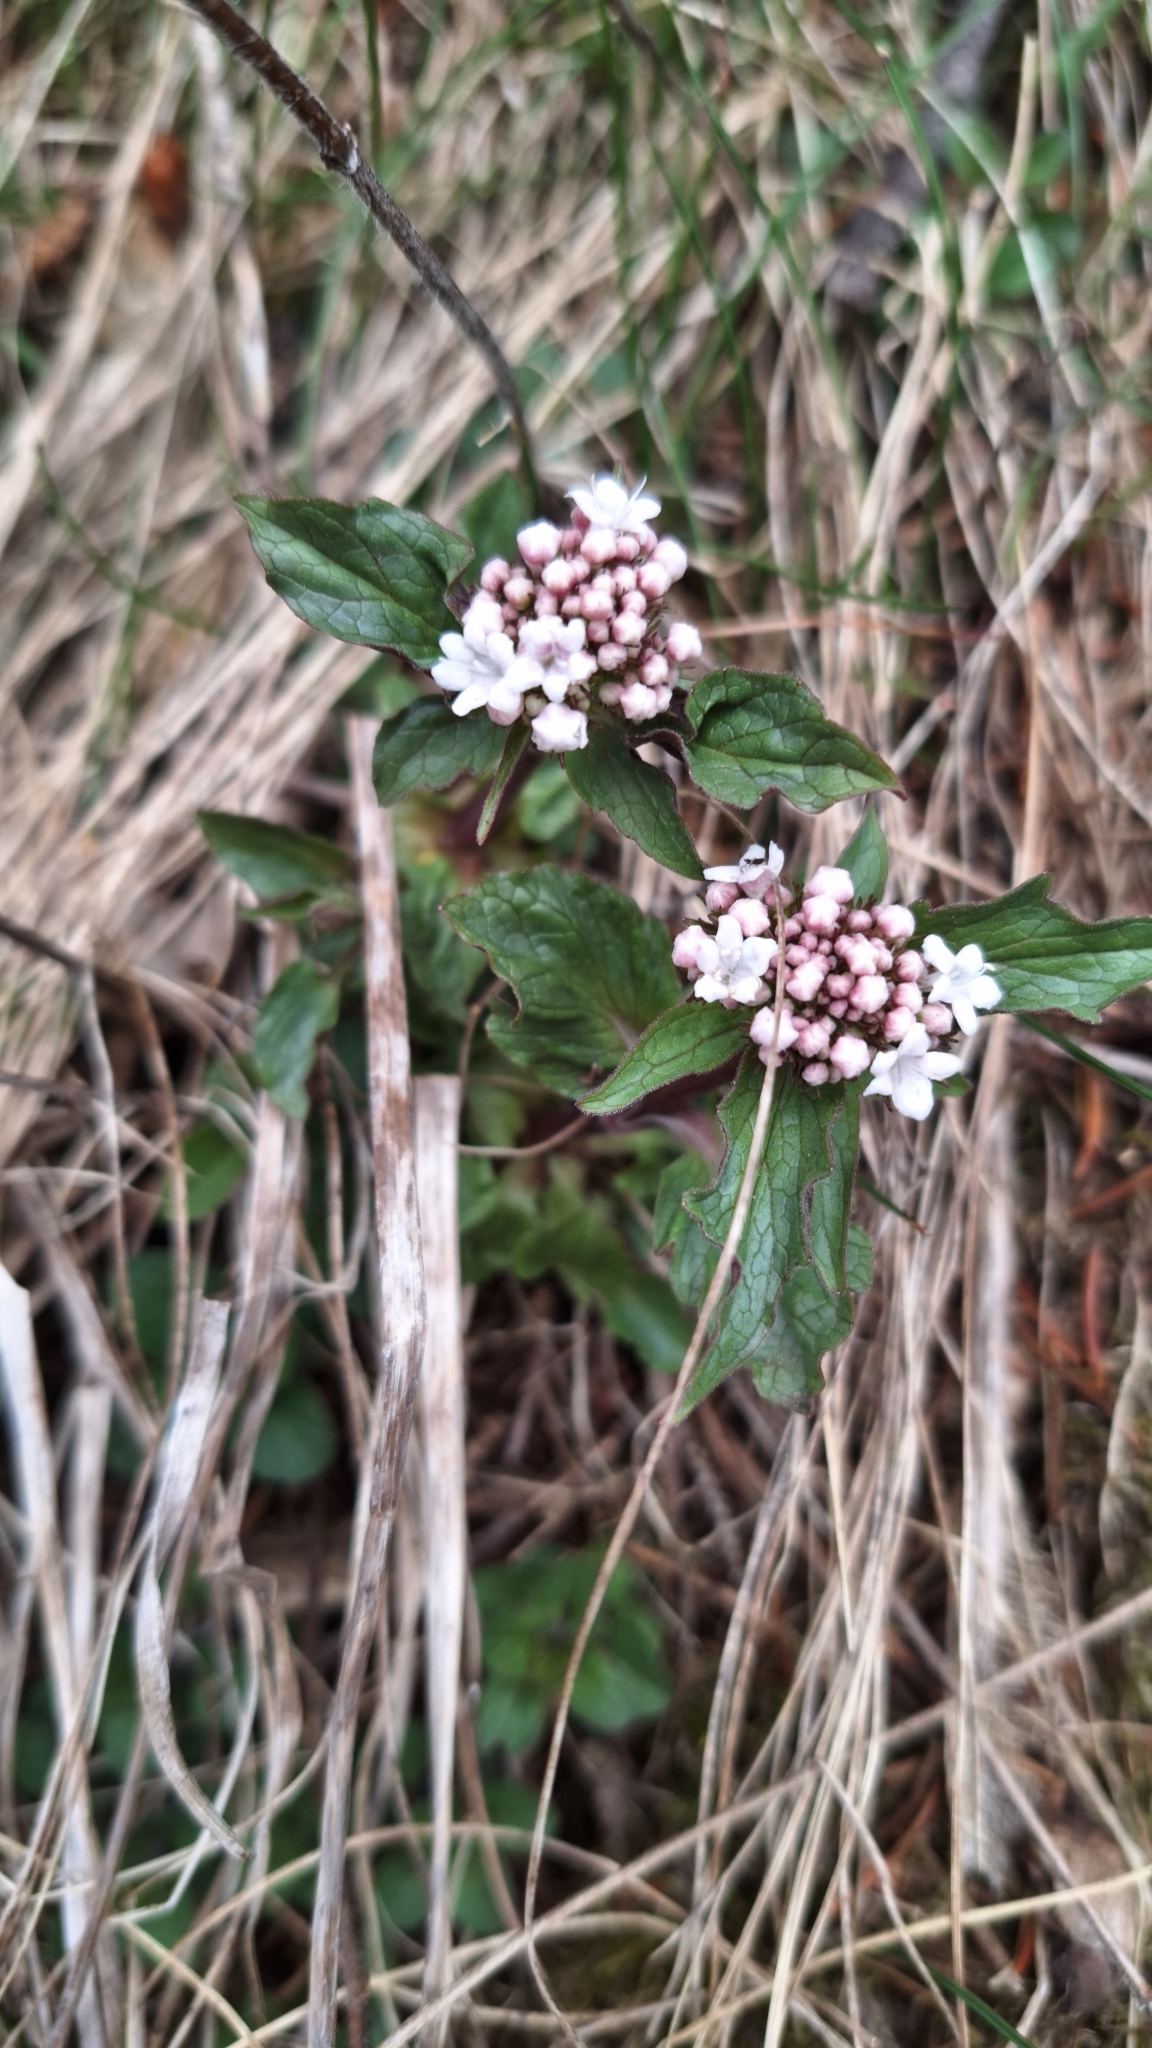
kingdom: Plantae
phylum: Tracheophyta
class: Magnoliopsida
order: Dipsacales
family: Caprifoliaceae
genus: Valeriana
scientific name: Valeriana tripteris
